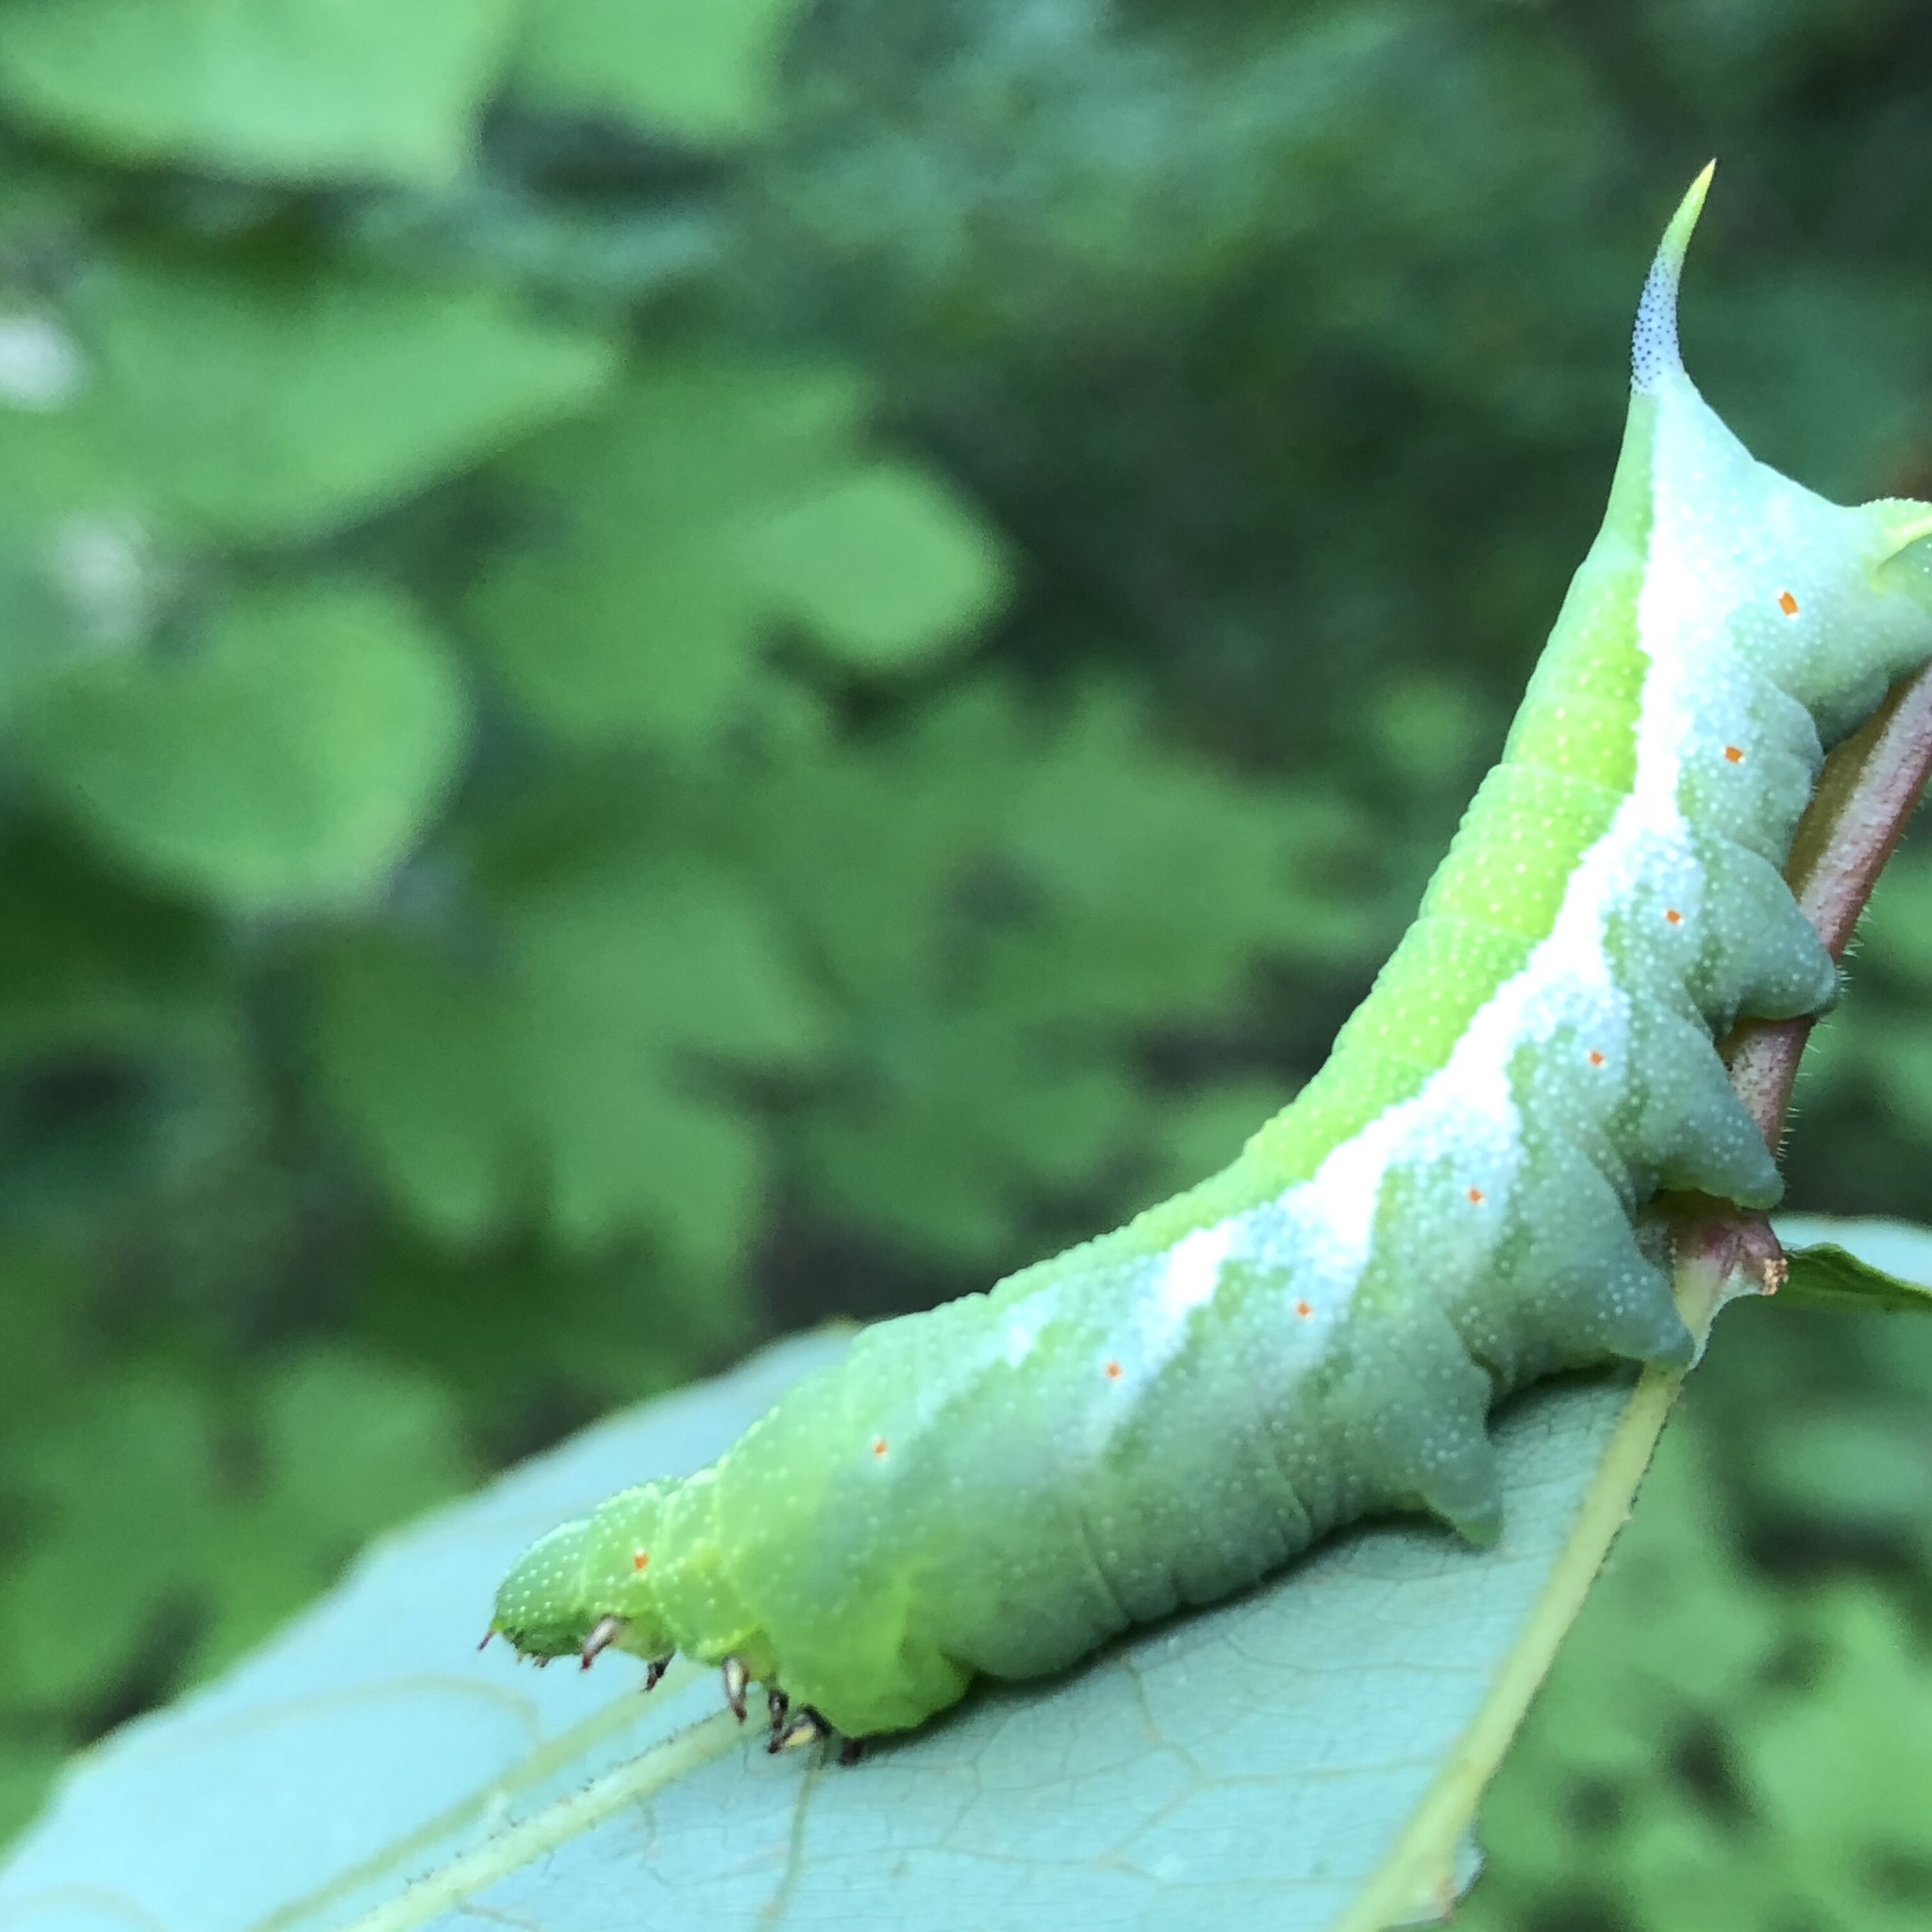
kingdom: Animalia
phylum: Arthropoda
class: Insecta
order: Lepidoptera
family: Sphingidae
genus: Darapsa
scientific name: Darapsa myron
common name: Hog sphinx
